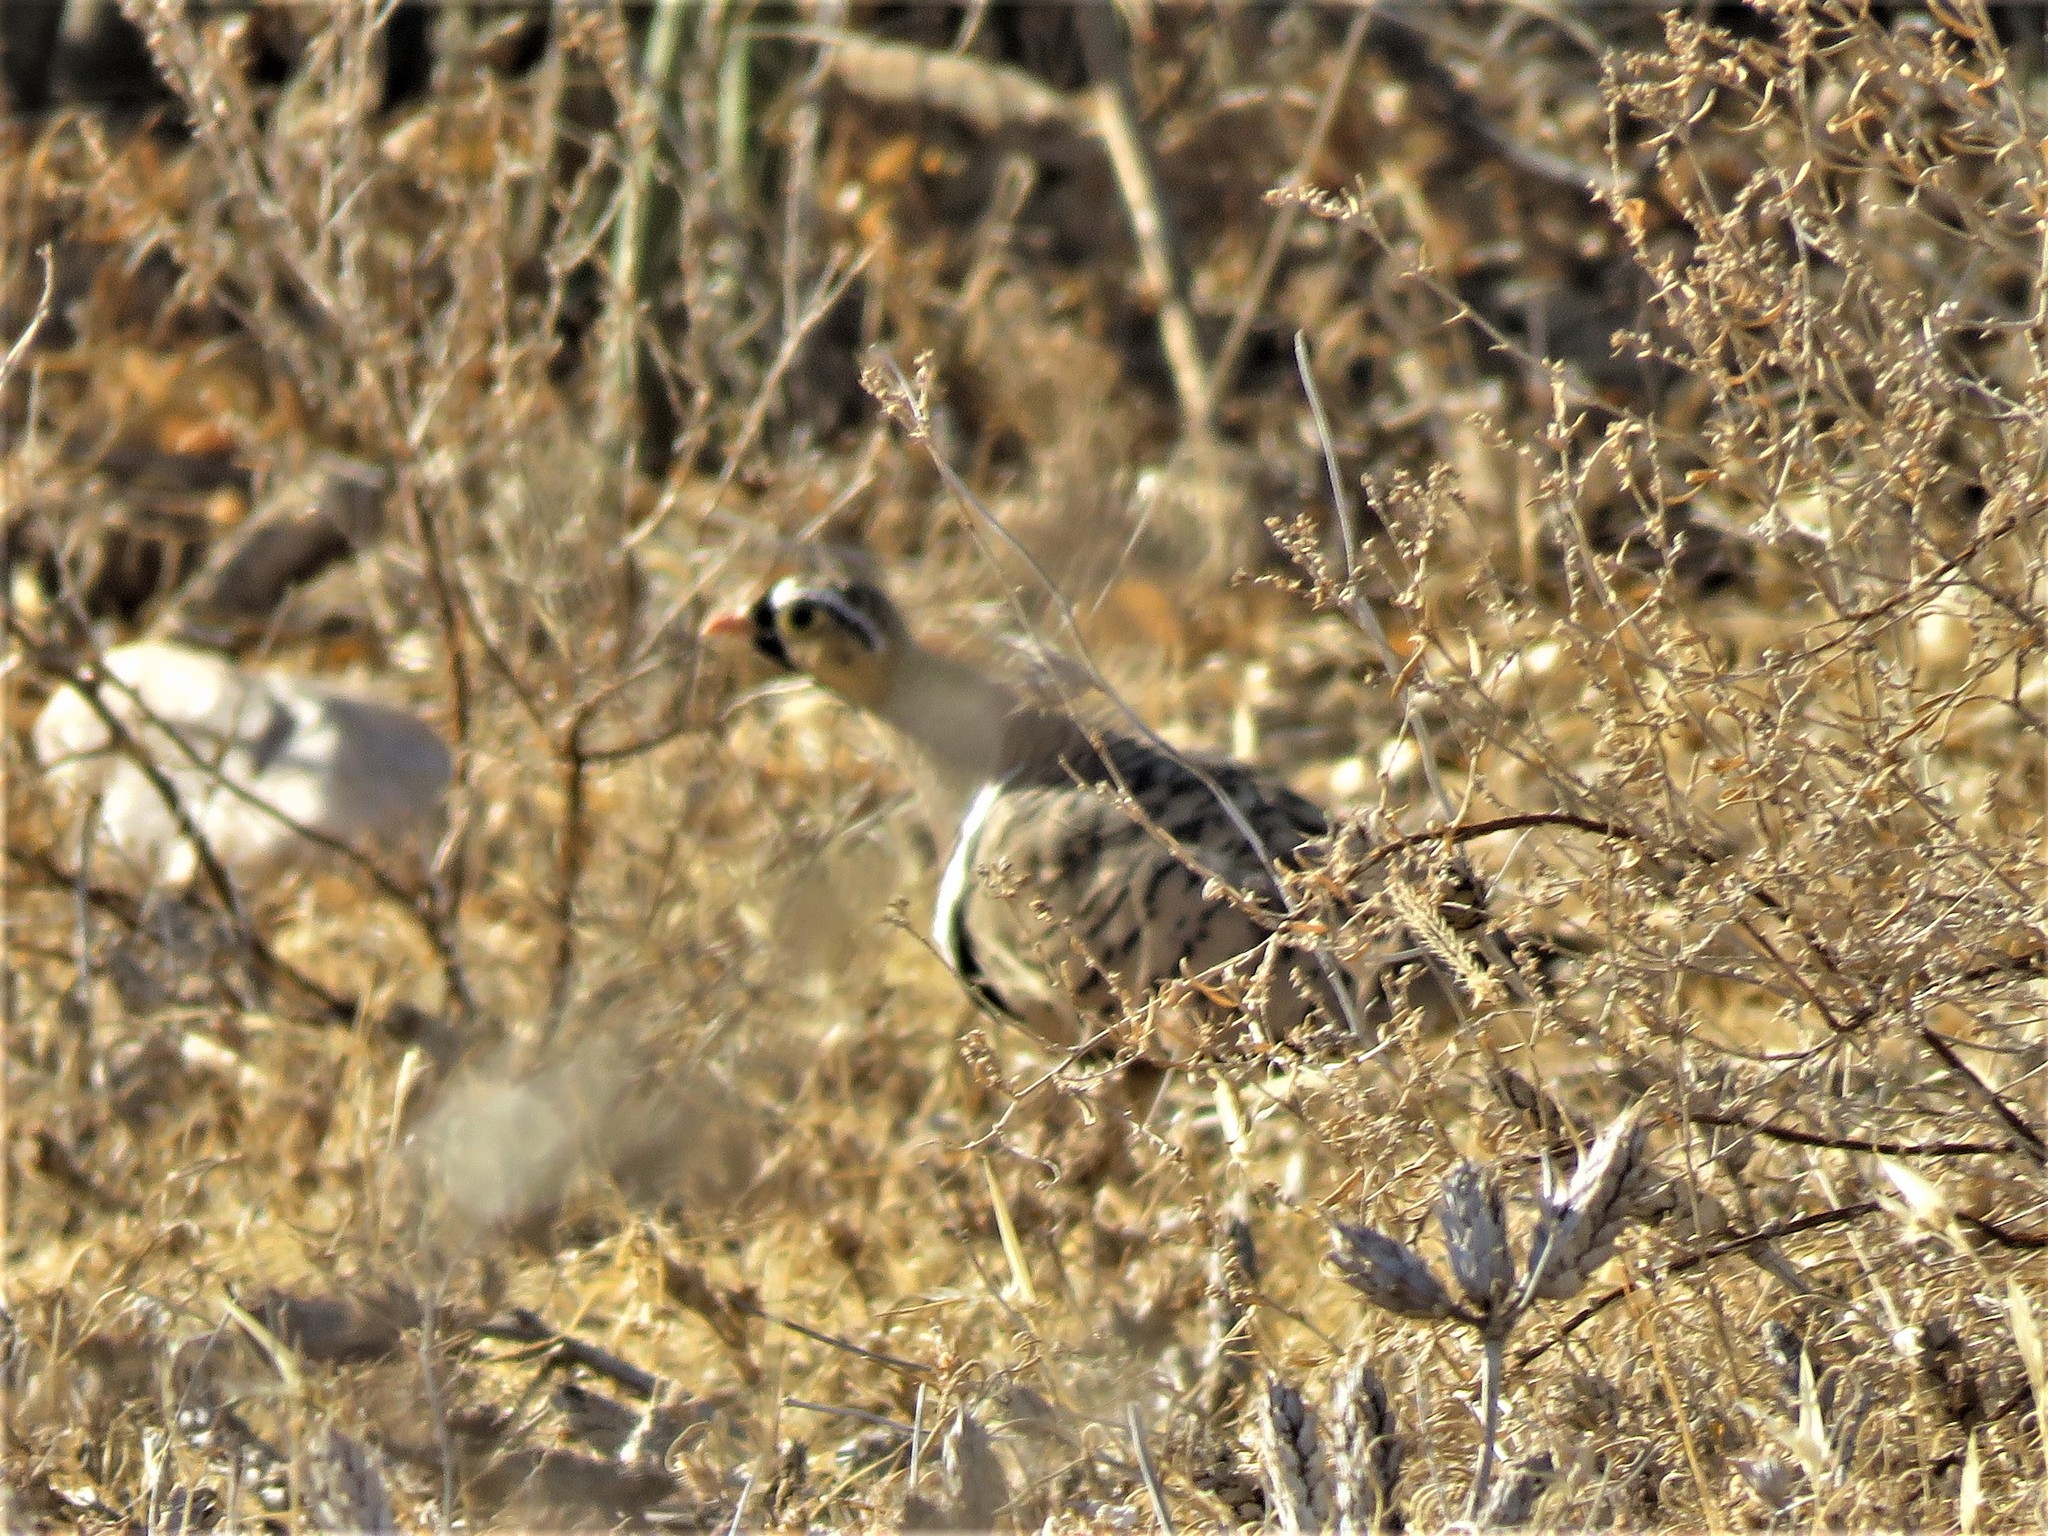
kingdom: Animalia
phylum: Chordata
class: Aves
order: Pteroclidiformes
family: Pteroclididae
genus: Pterocles
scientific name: Pterocles decoratus
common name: Black-faced sandgrouse
